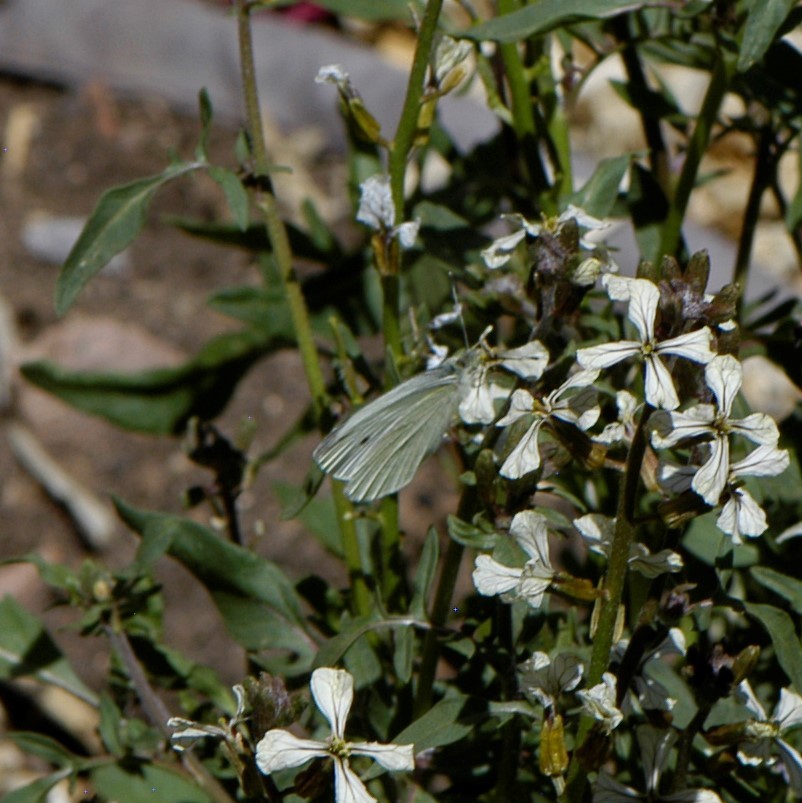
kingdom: Animalia
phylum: Arthropoda
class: Insecta
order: Lepidoptera
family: Pieridae
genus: Pieris
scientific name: Pieris rapae
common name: Small white
